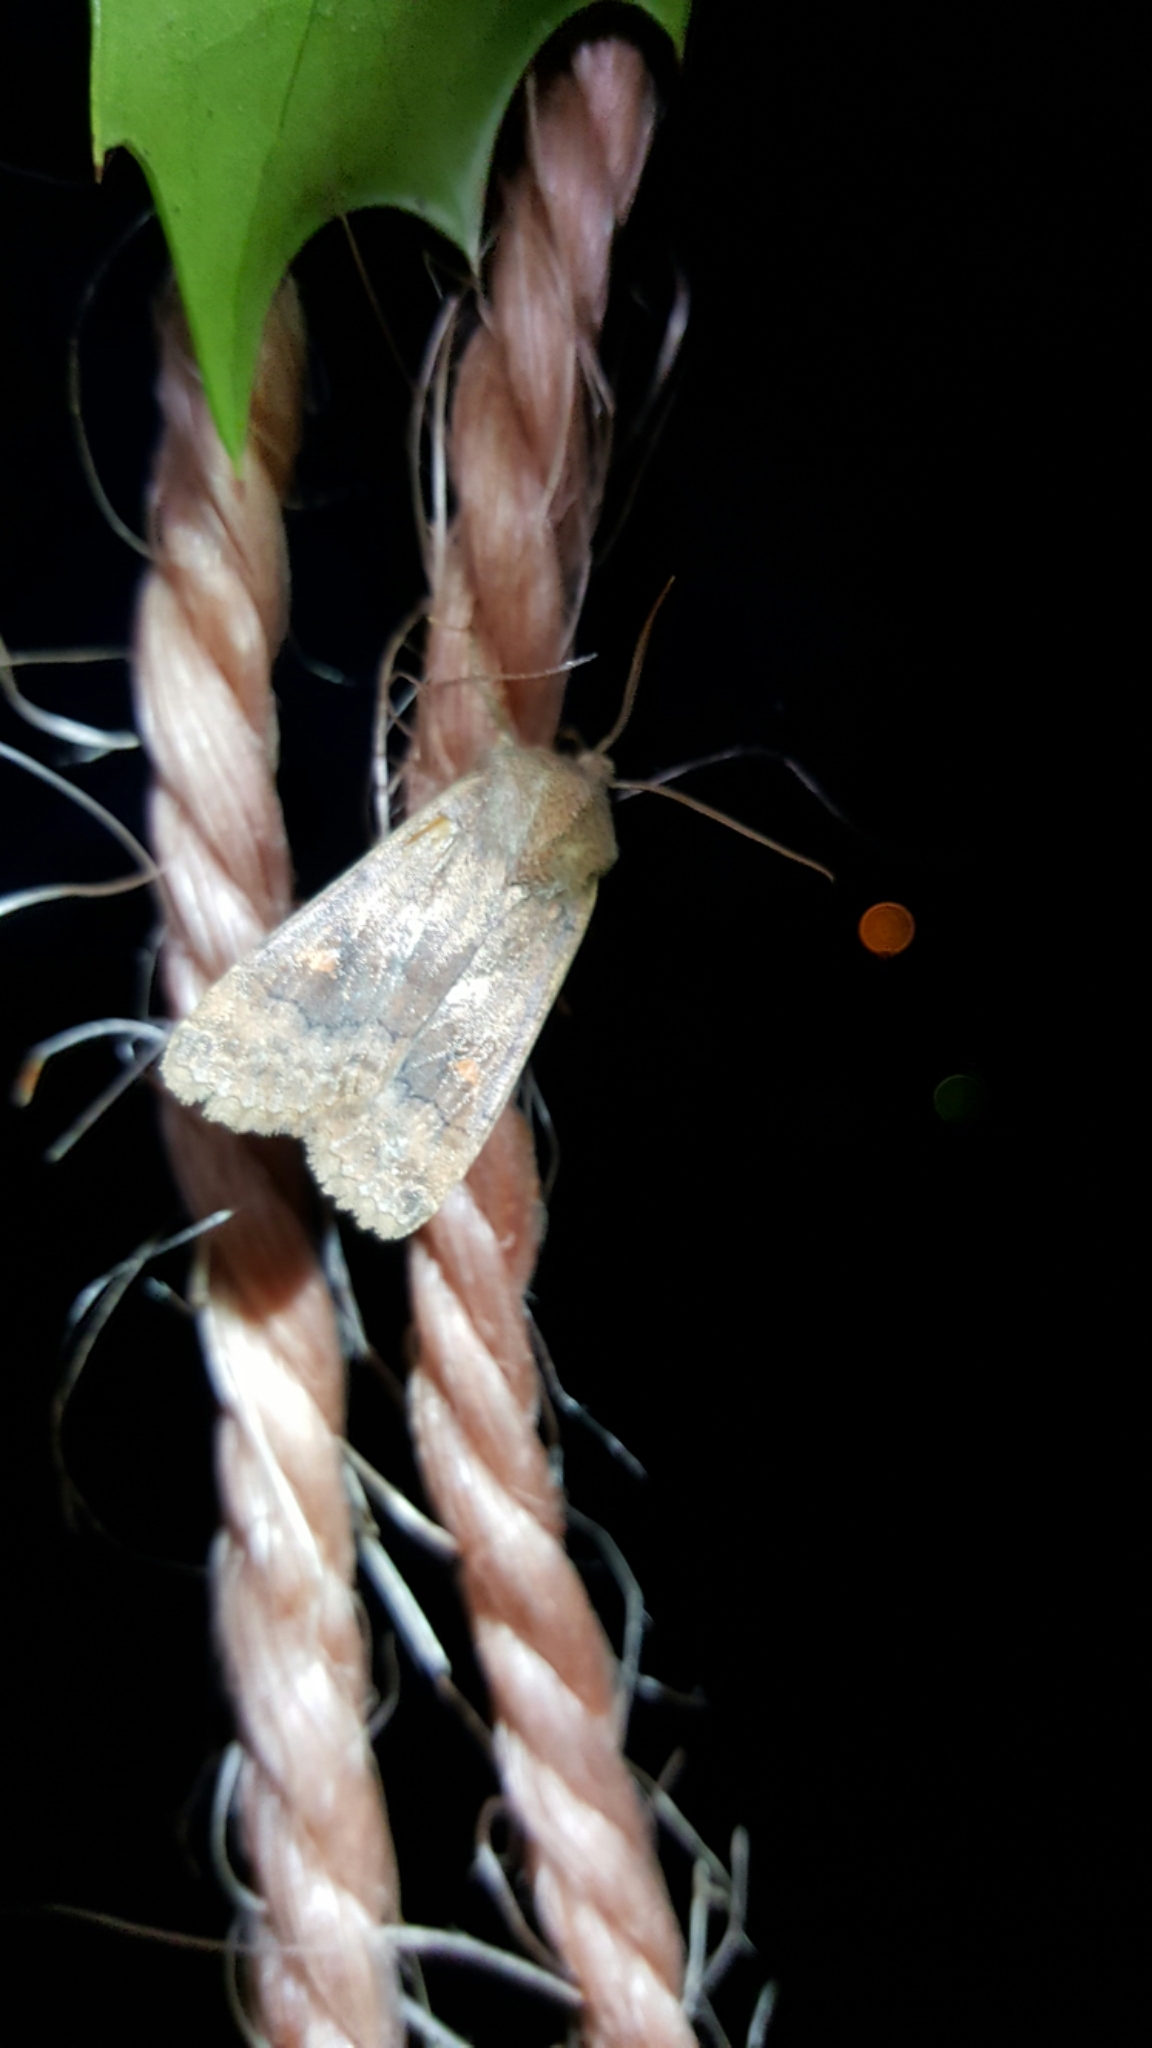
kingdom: Animalia
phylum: Arthropoda
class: Insecta
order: Lepidoptera
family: Noctuidae
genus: Eupsilia
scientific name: Eupsilia transversa
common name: Satellite
